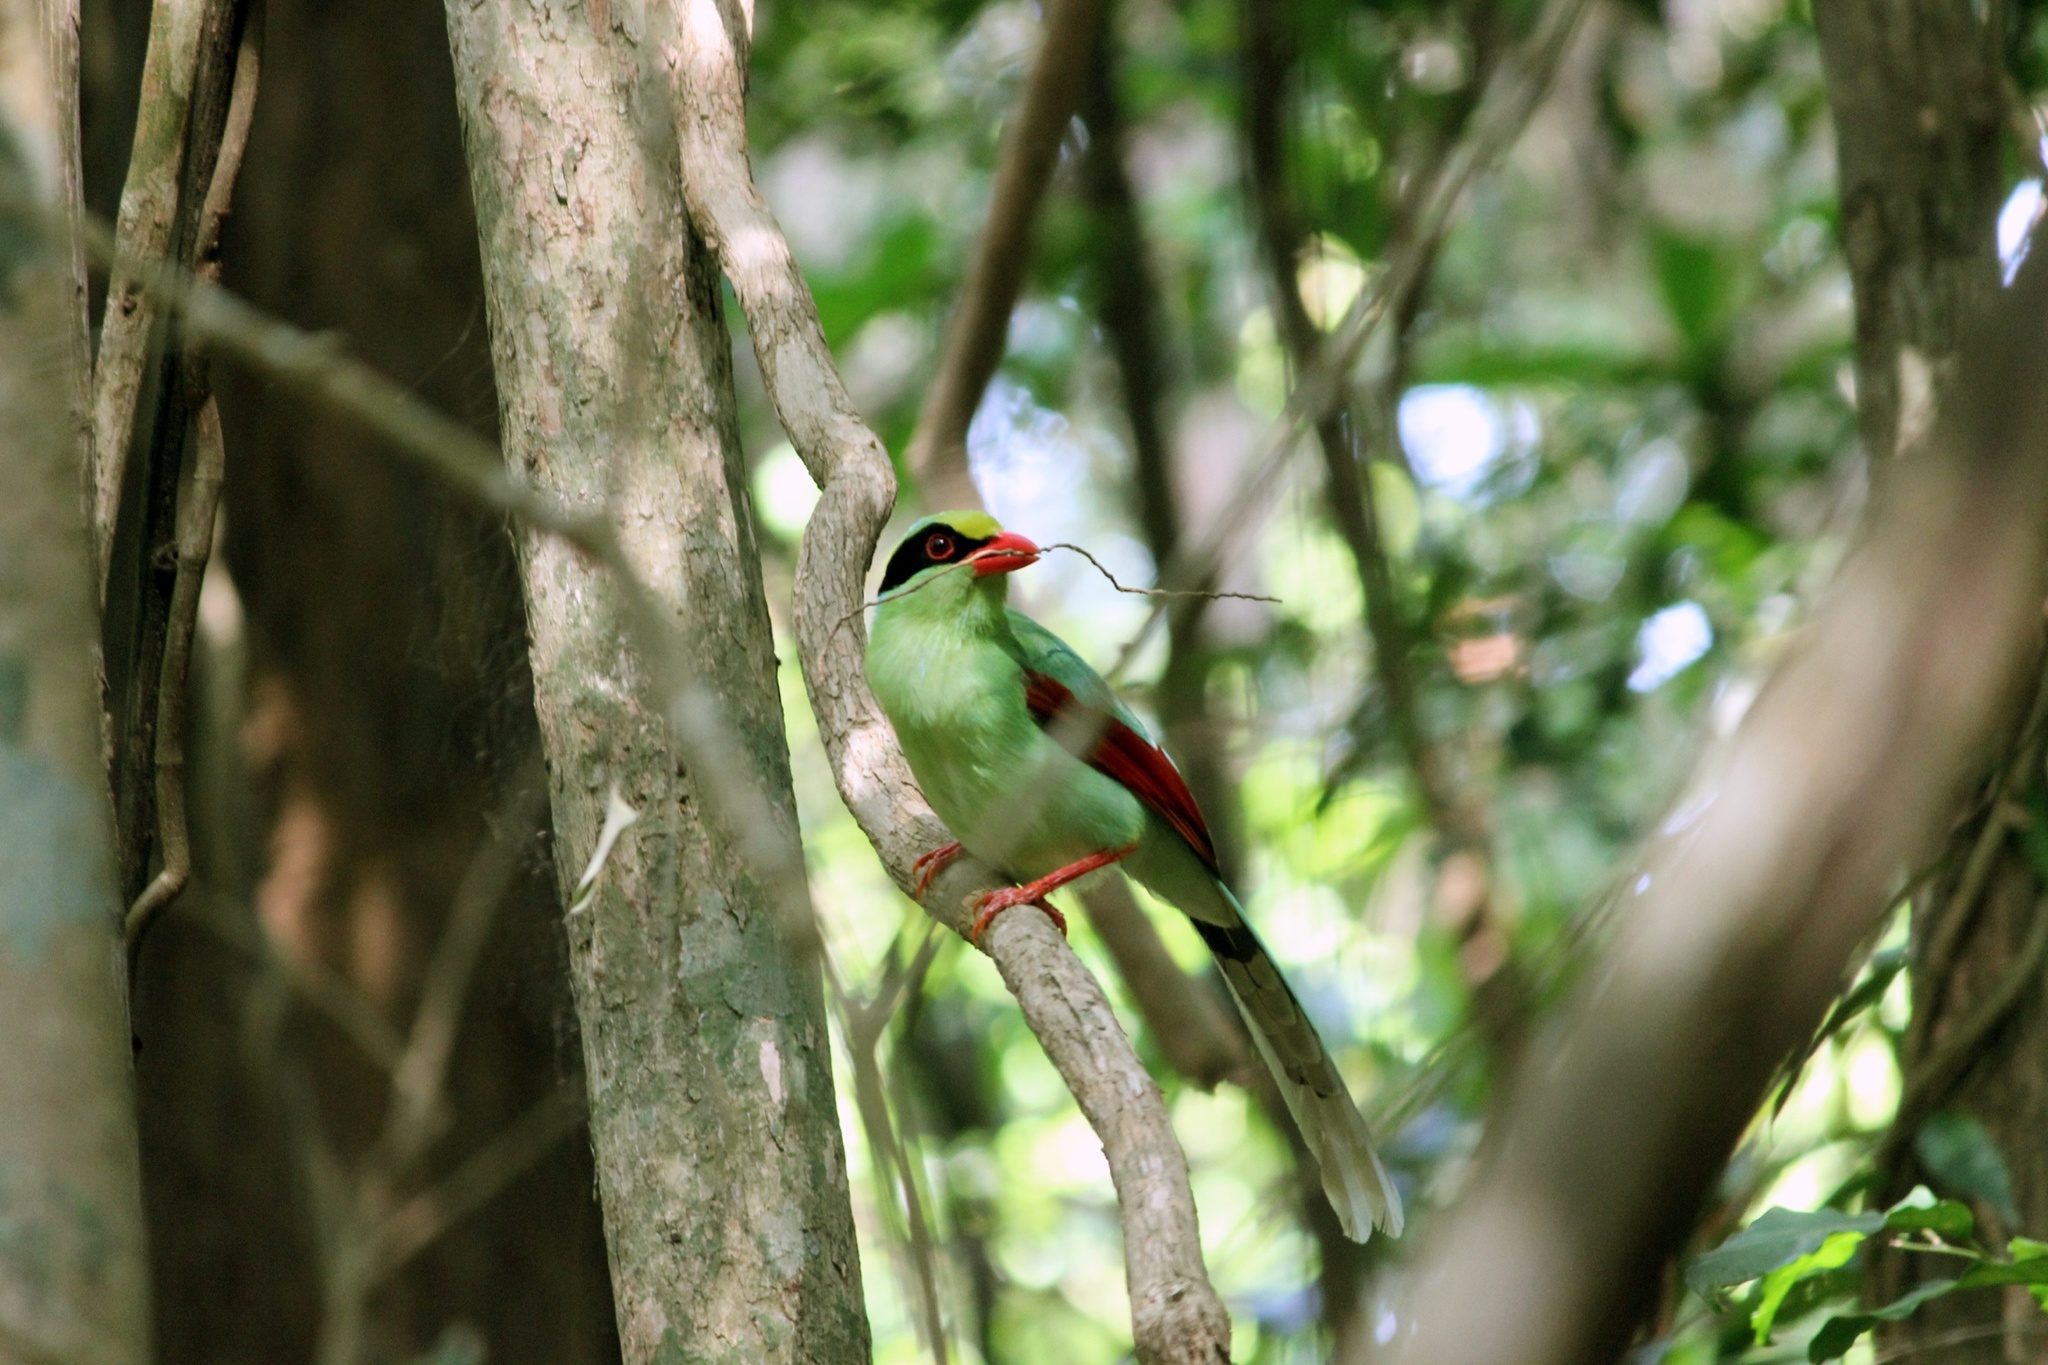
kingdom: Animalia
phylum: Chordata
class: Aves
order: Passeriformes
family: Corvidae
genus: Cissa
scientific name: Cissa chinensis
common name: Common green magpie
